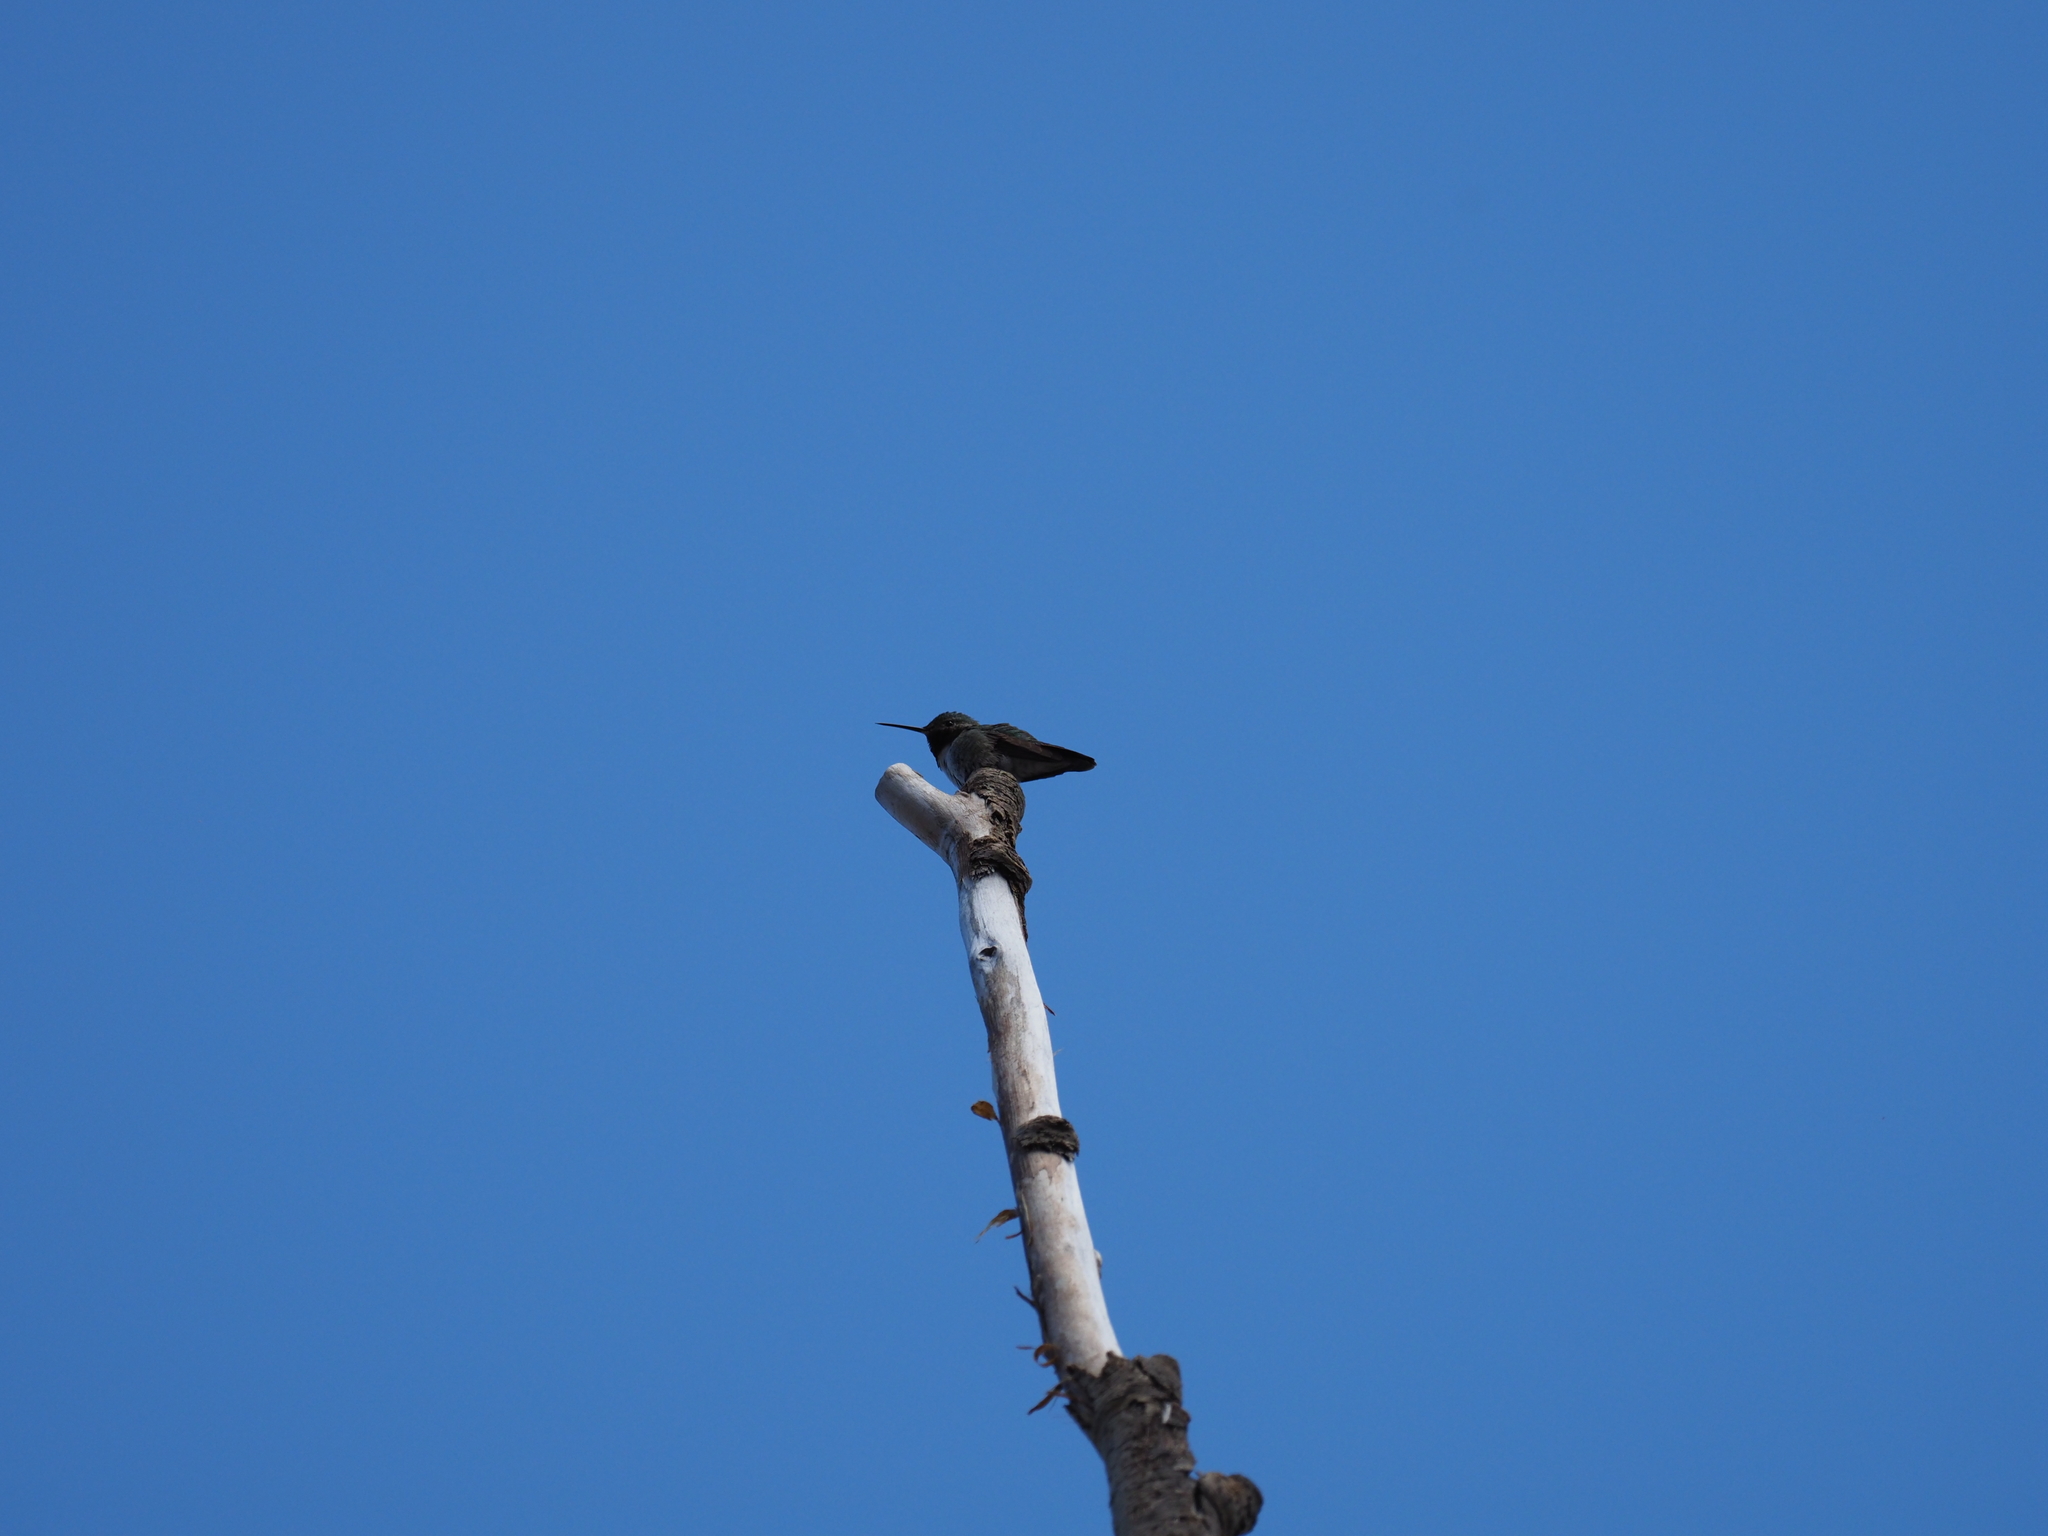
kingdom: Animalia
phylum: Chordata
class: Aves
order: Apodiformes
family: Trochilidae
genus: Selasphorus
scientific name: Selasphorus platycercus
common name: Broad-tailed hummingbird
